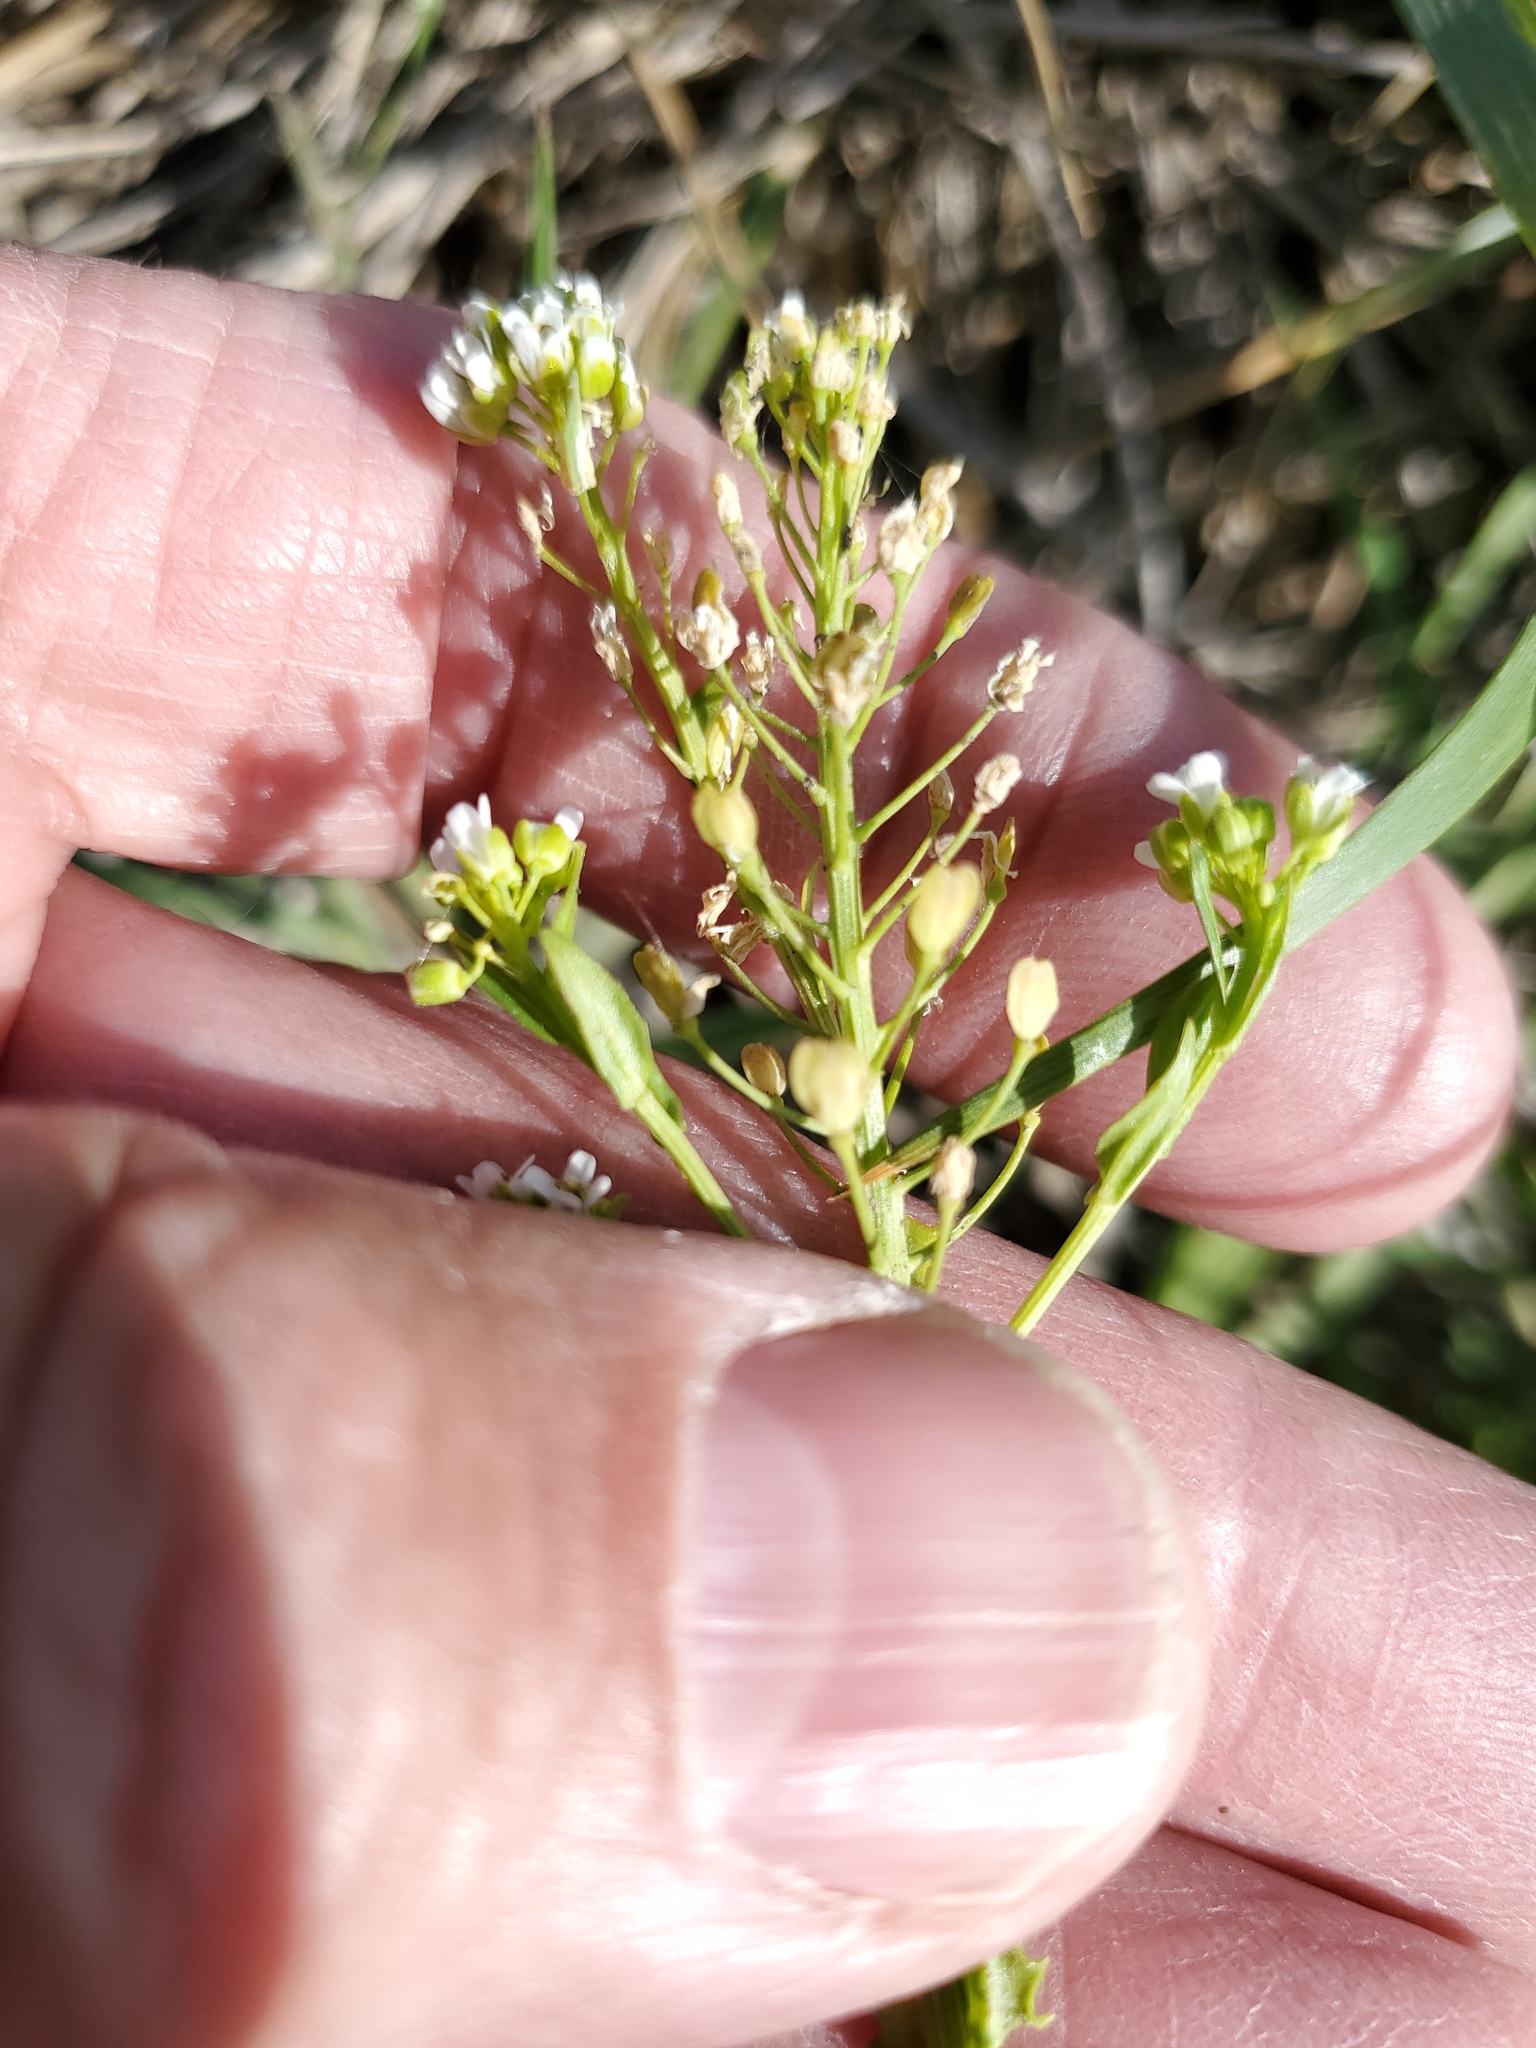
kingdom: Plantae
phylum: Tracheophyta
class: Magnoliopsida
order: Brassicales
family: Brassicaceae
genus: Thlaspi
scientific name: Thlaspi arvense
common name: Field pennycress
